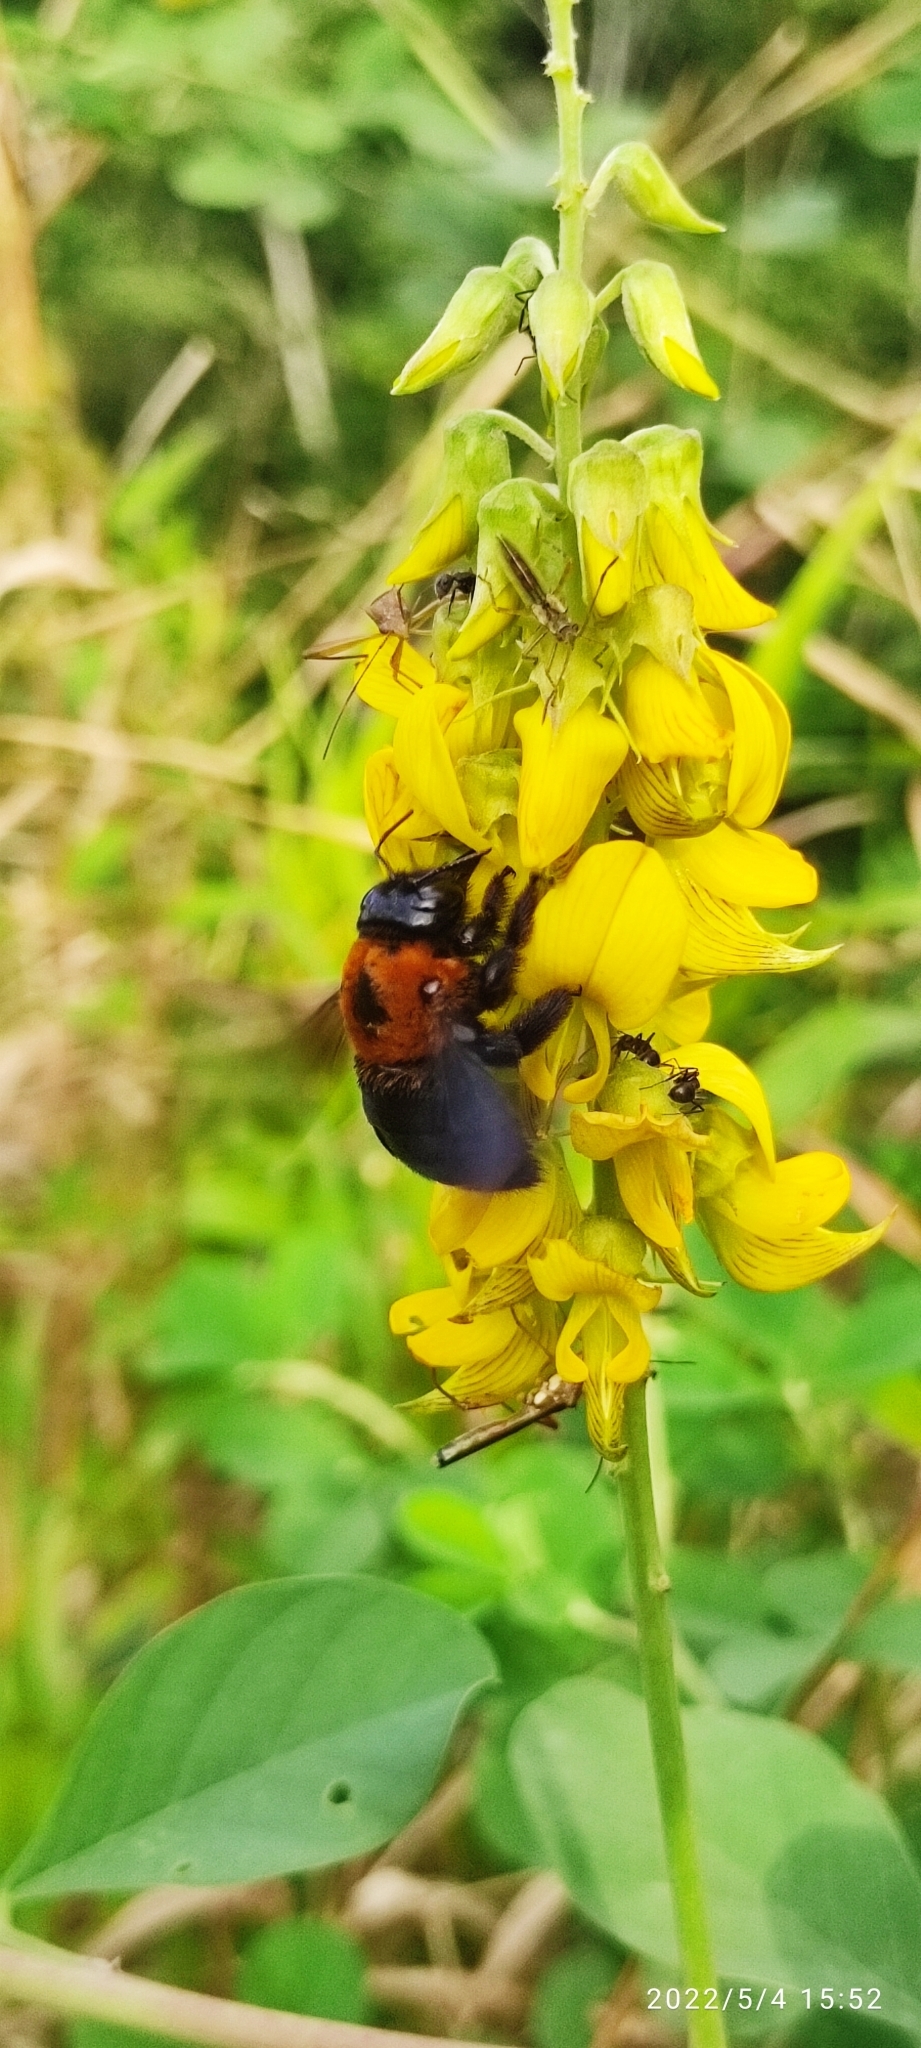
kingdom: Animalia
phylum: Arthropoda
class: Insecta
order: Hymenoptera
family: Apidae
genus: Xylocopa
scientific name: Xylocopa similis
